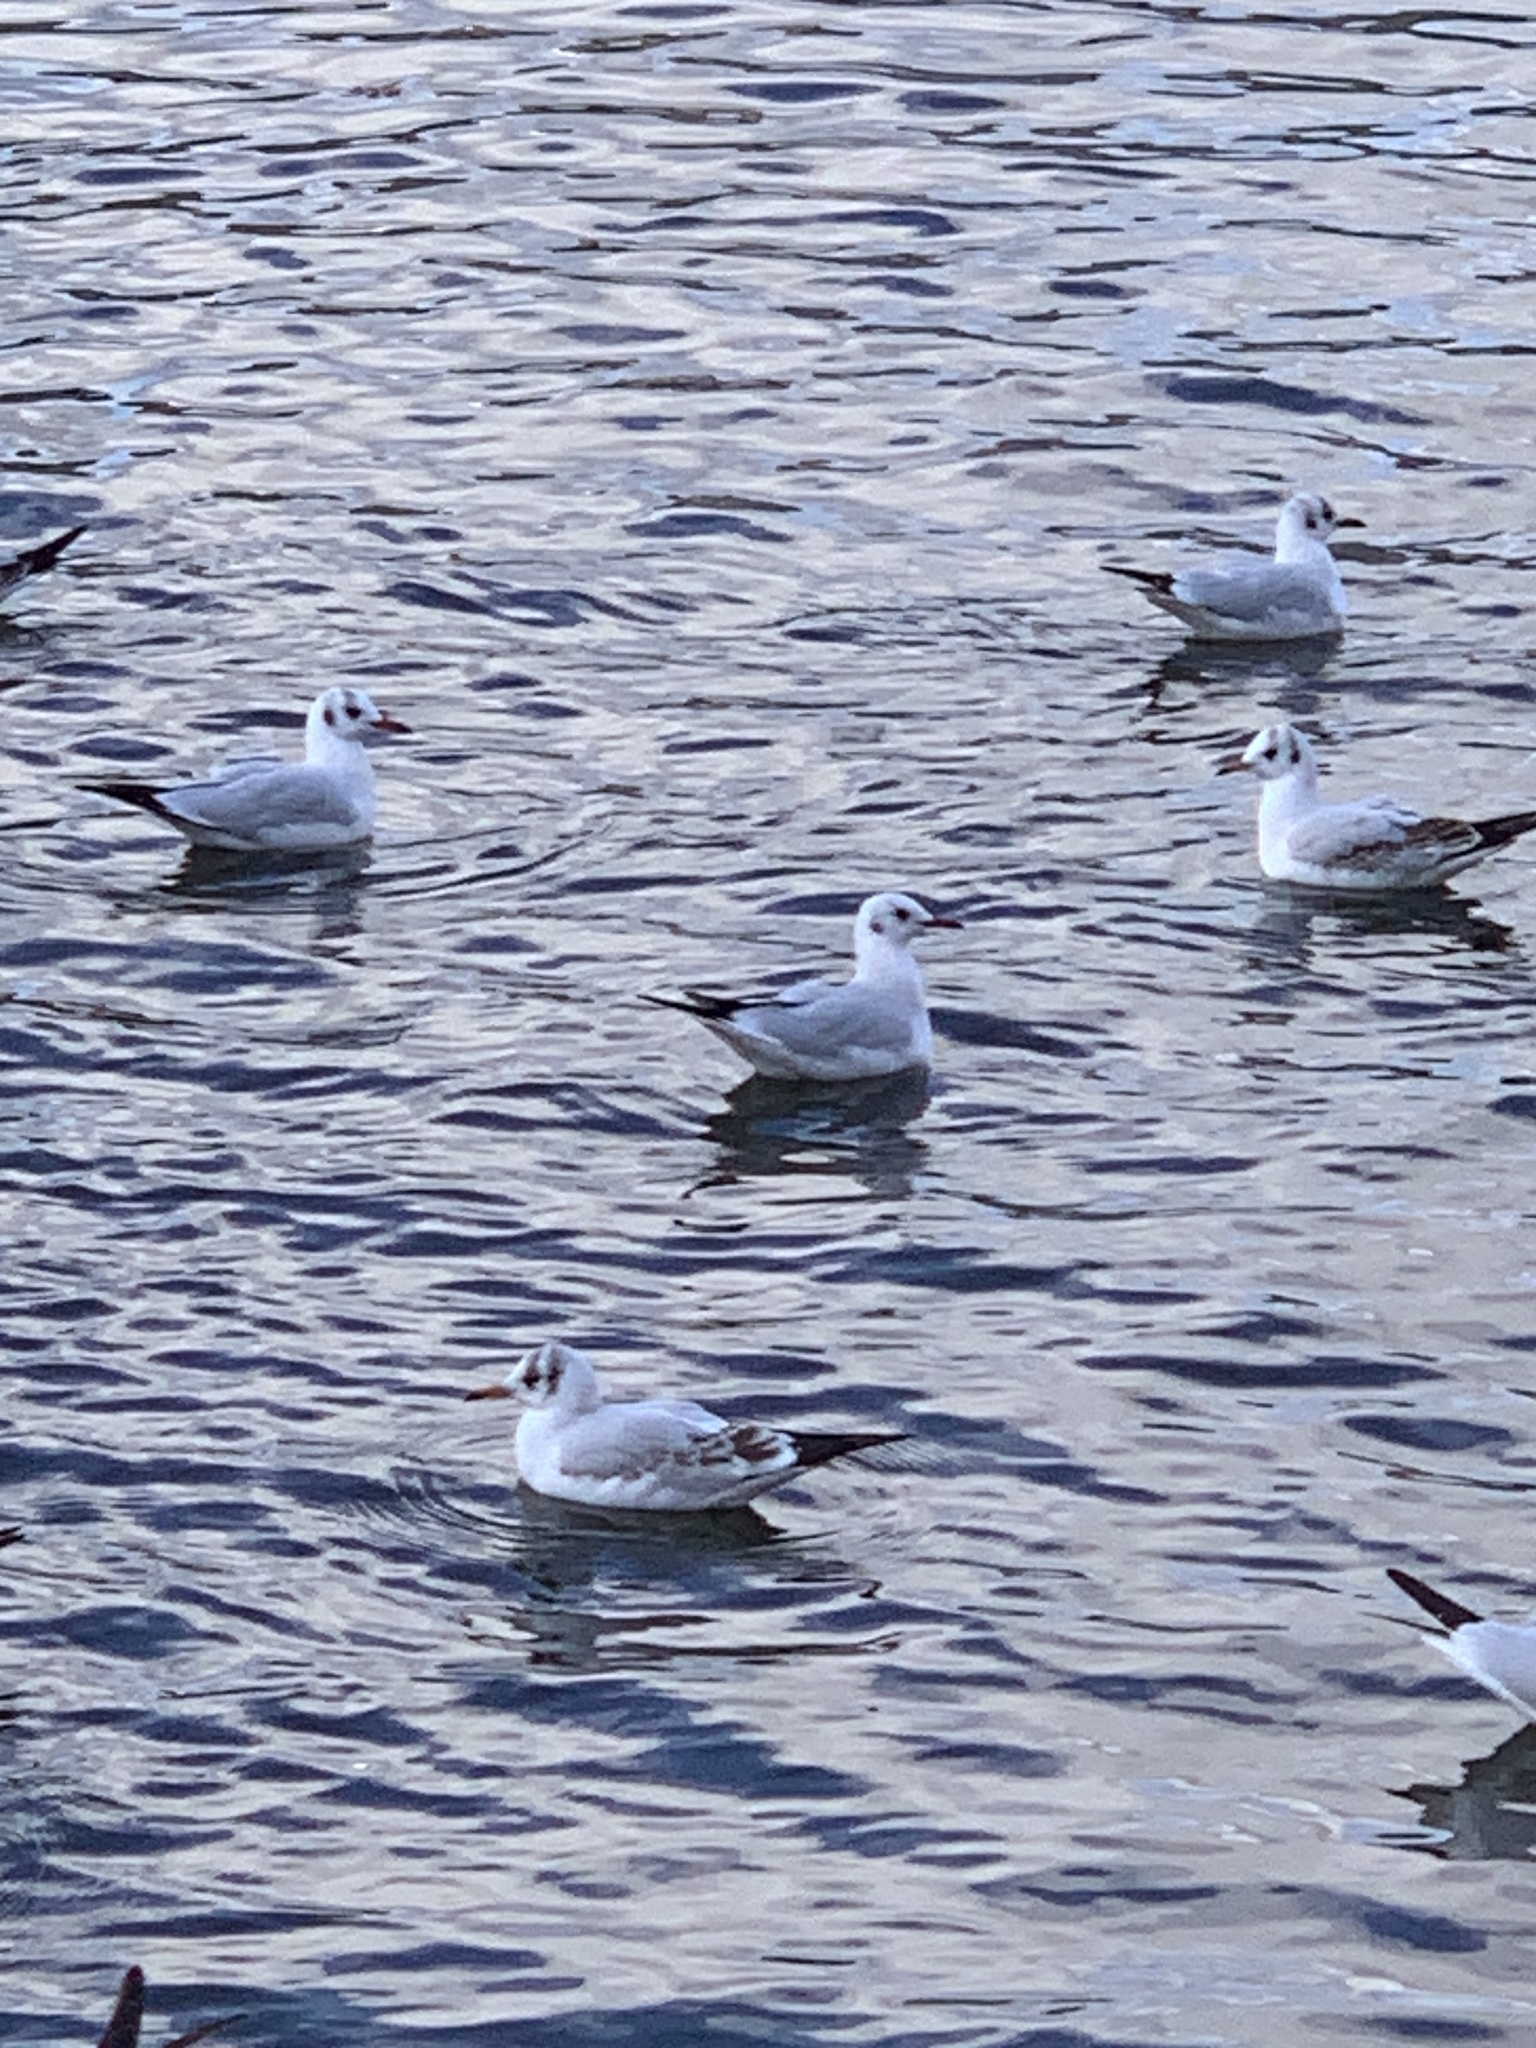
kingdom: Animalia
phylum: Chordata
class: Aves
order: Charadriiformes
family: Laridae
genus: Chroicocephalus
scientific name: Chroicocephalus ridibundus
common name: Black-headed gull
